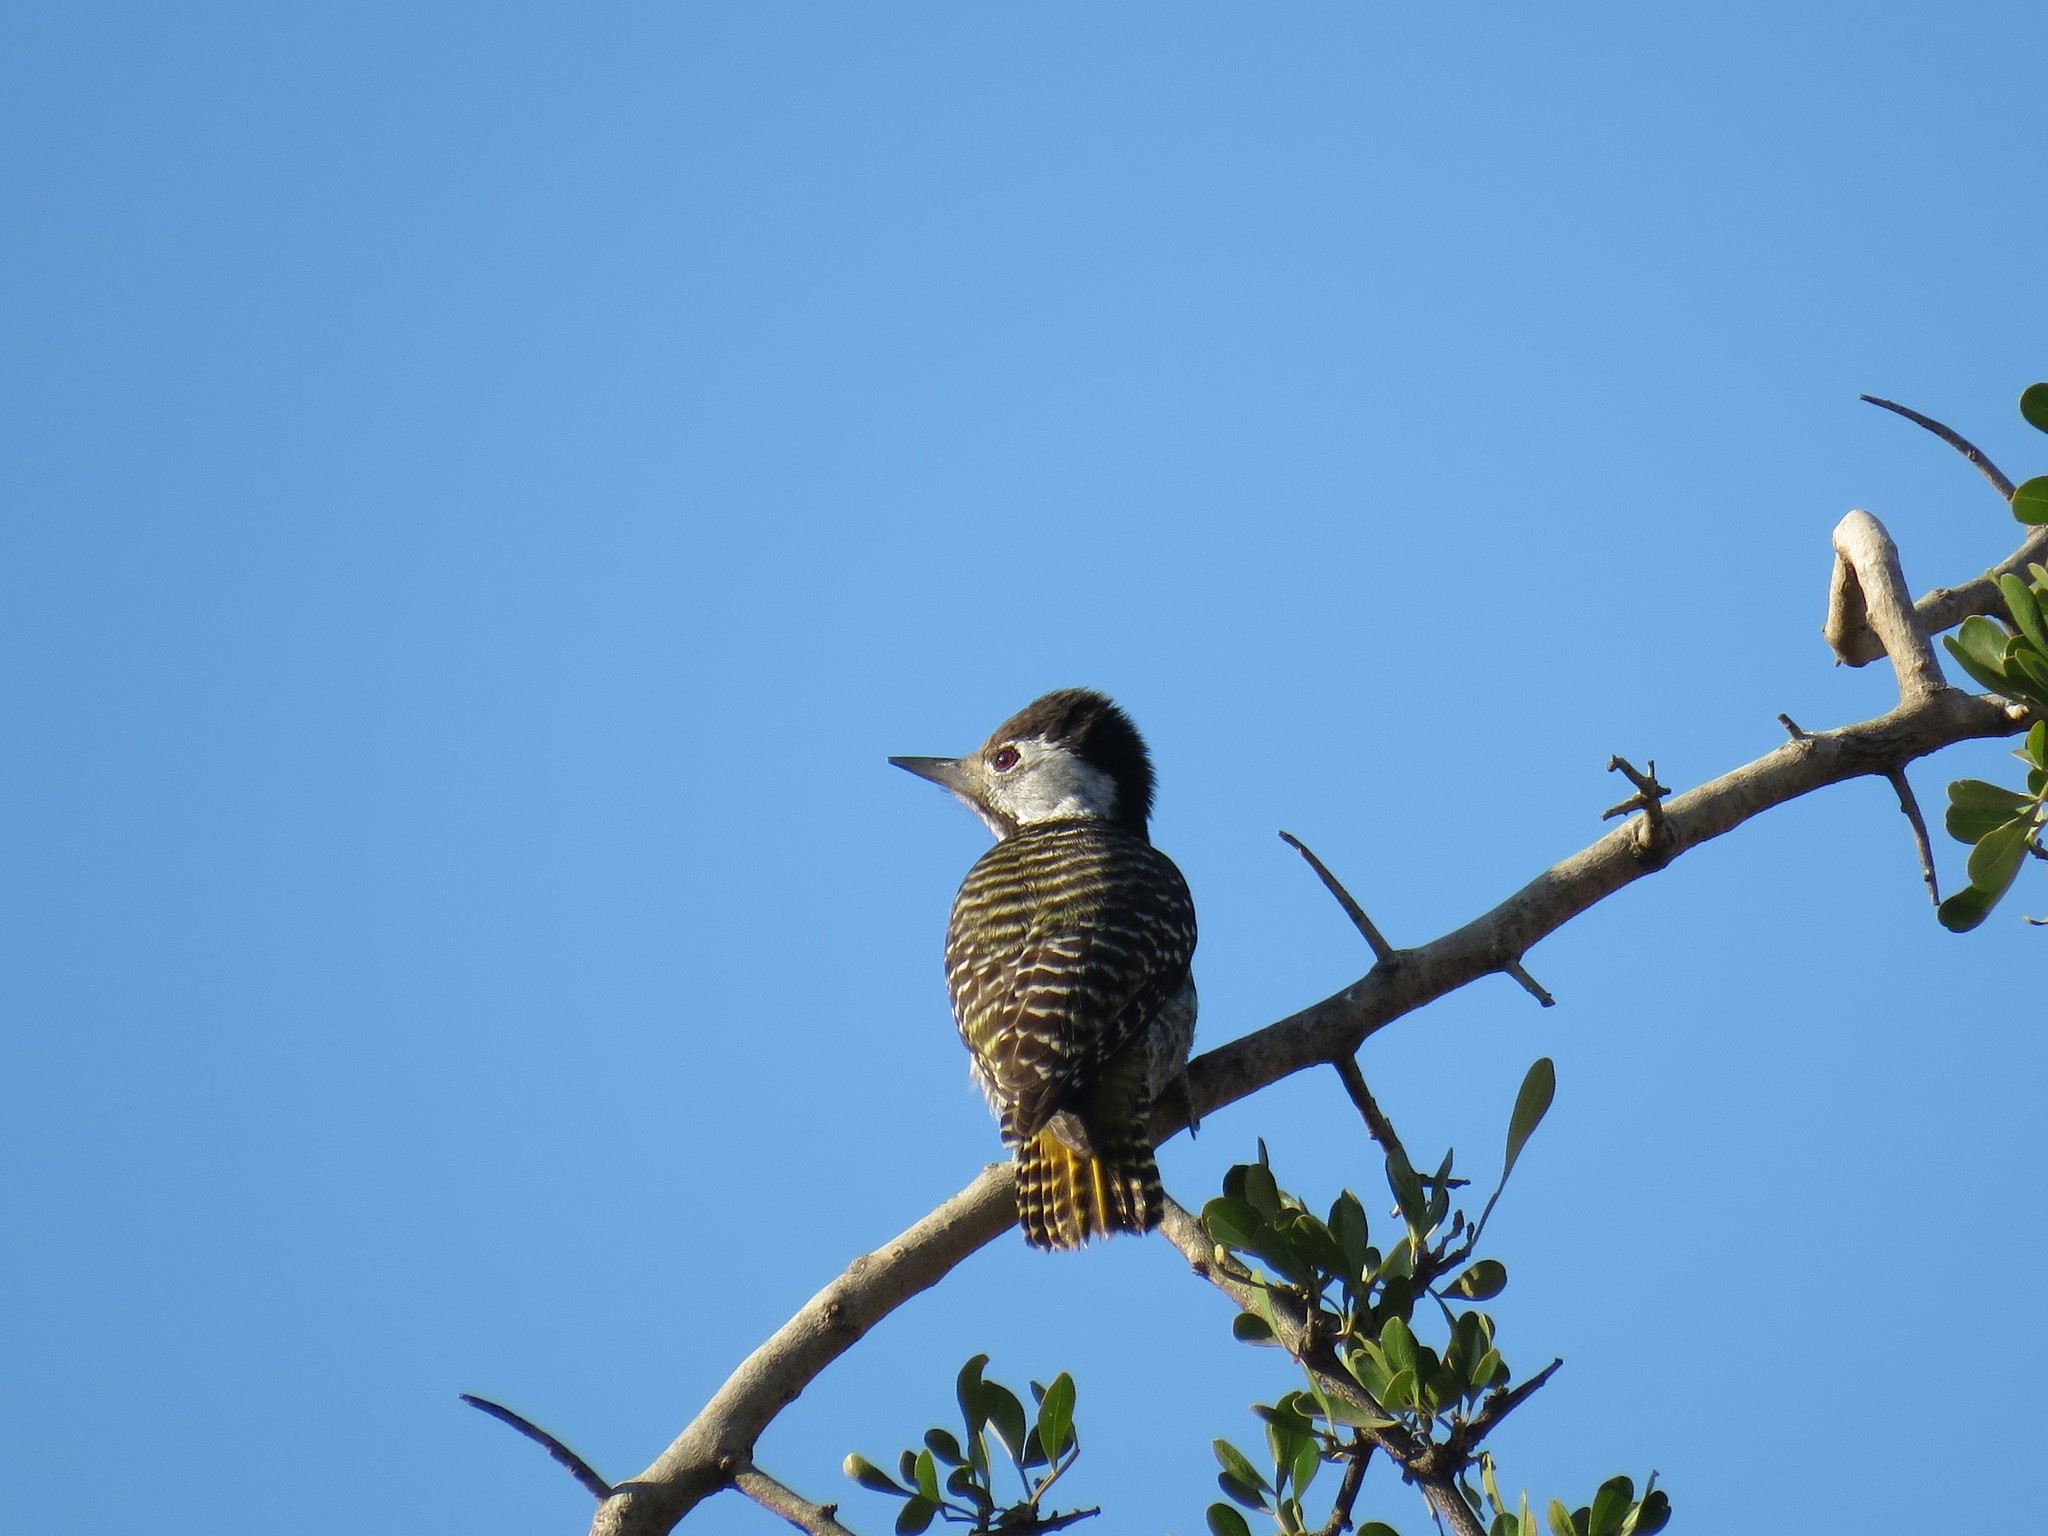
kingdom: Animalia
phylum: Chordata
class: Aves
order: Piciformes
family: Picidae
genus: Dendropicos
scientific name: Dendropicos fuscescens
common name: Cardinal woodpecker
